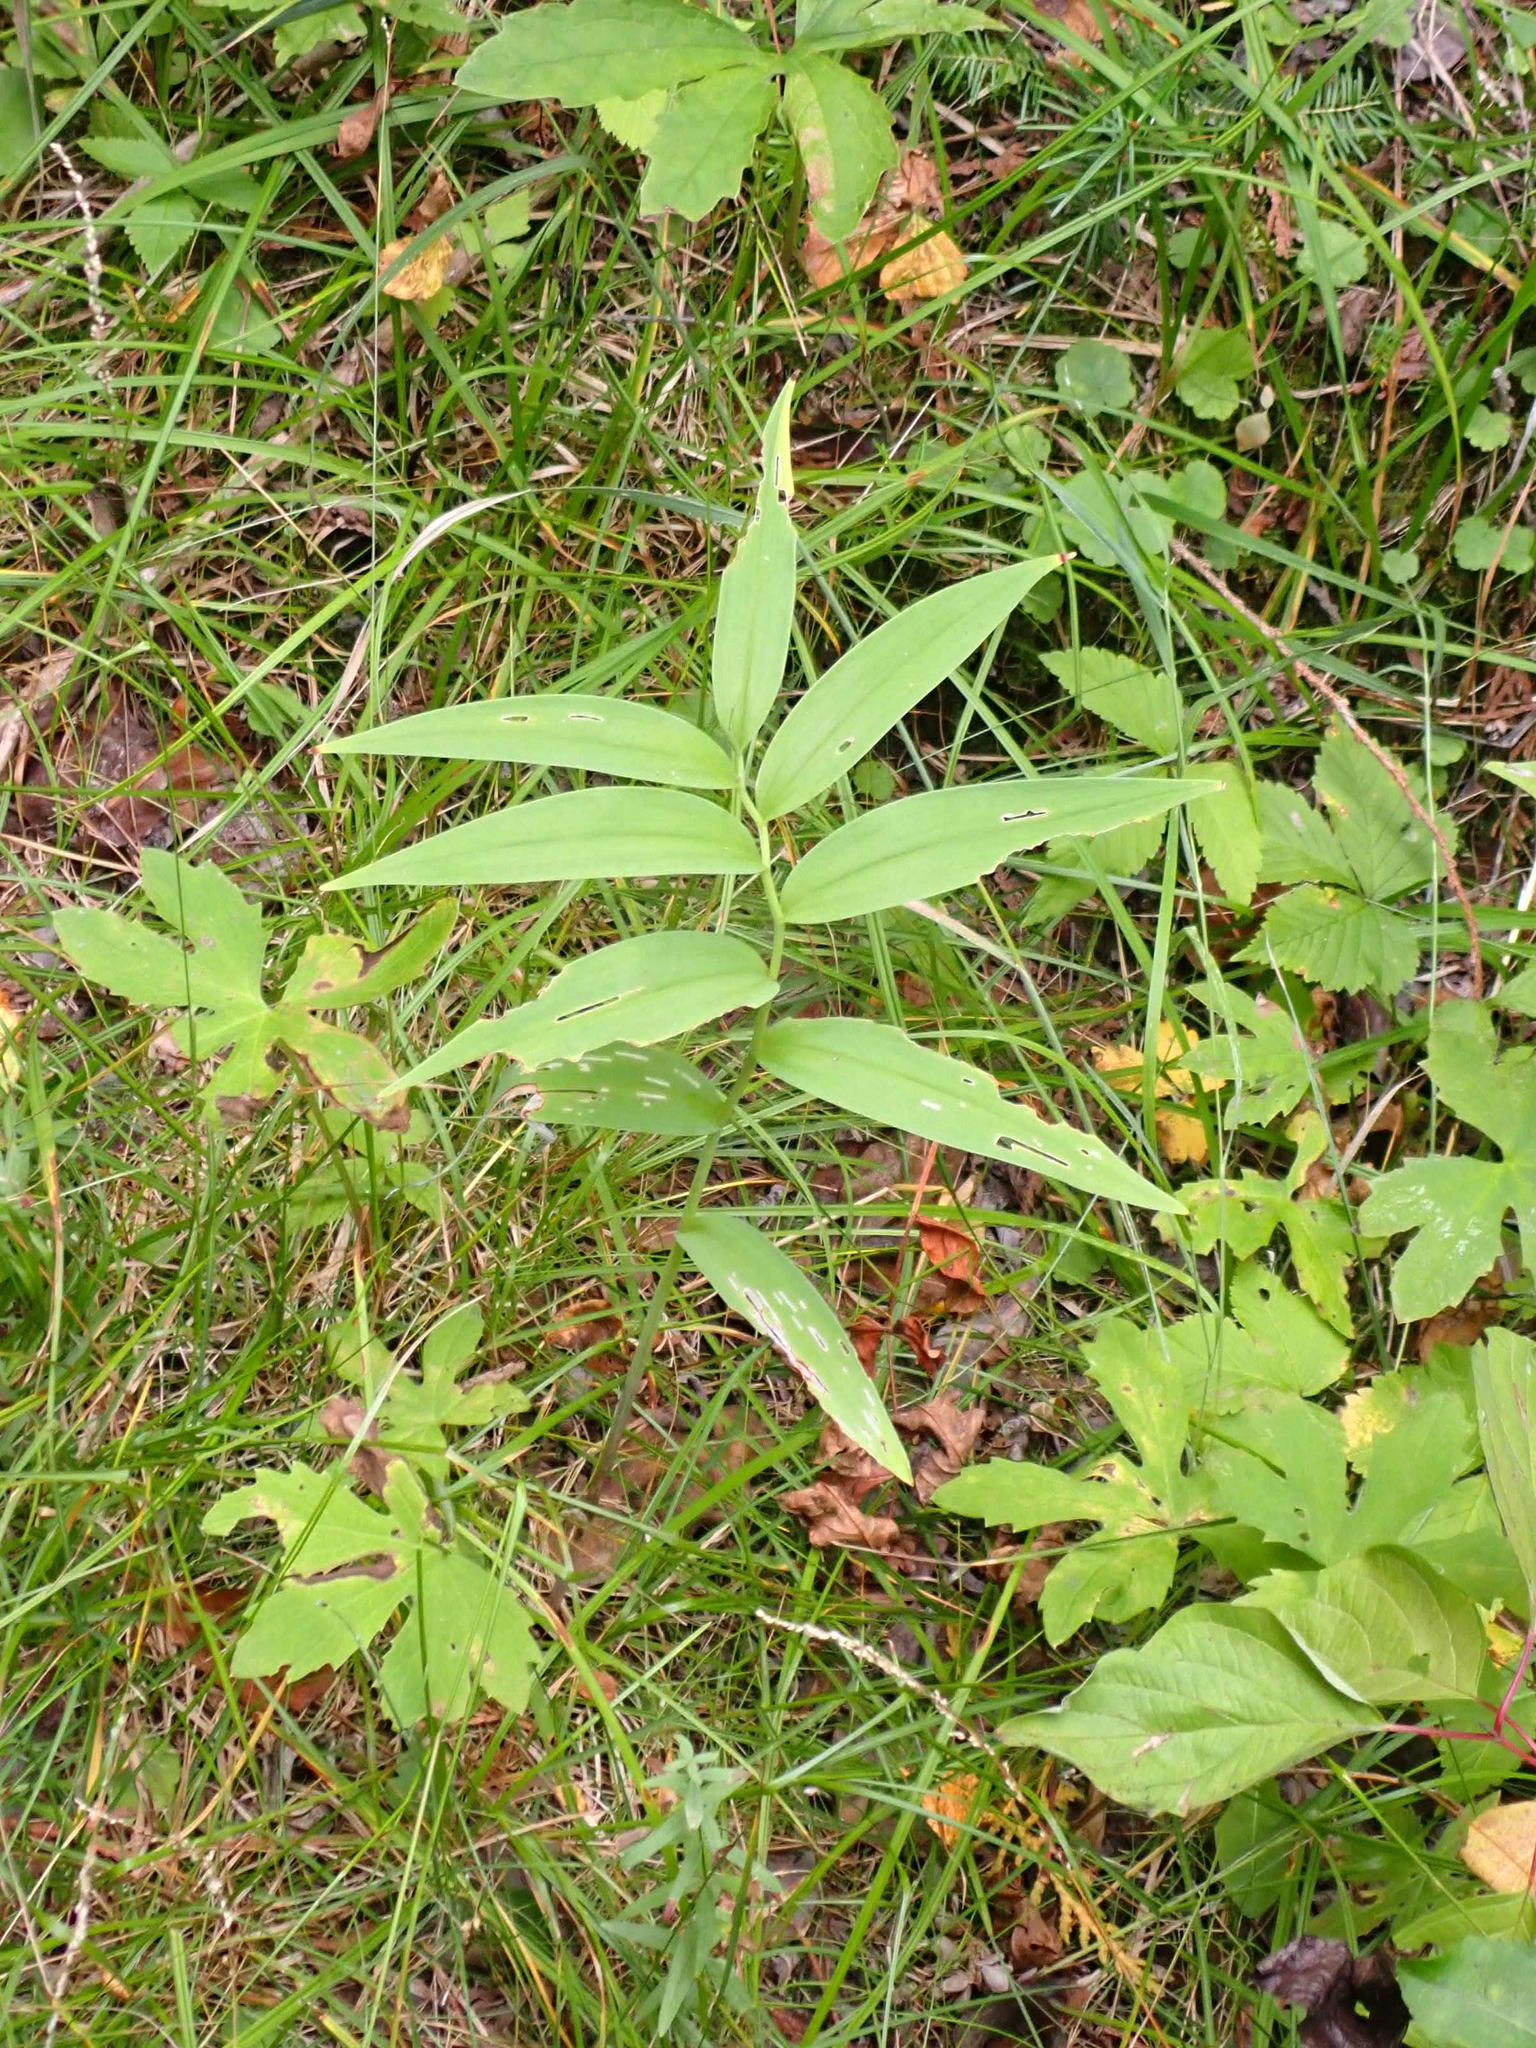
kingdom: Plantae
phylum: Tracheophyta
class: Liliopsida
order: Asparagales
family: Asparagaceae
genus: Maianthemum
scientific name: Maianthemum stellatum
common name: Little false solomon's seal
